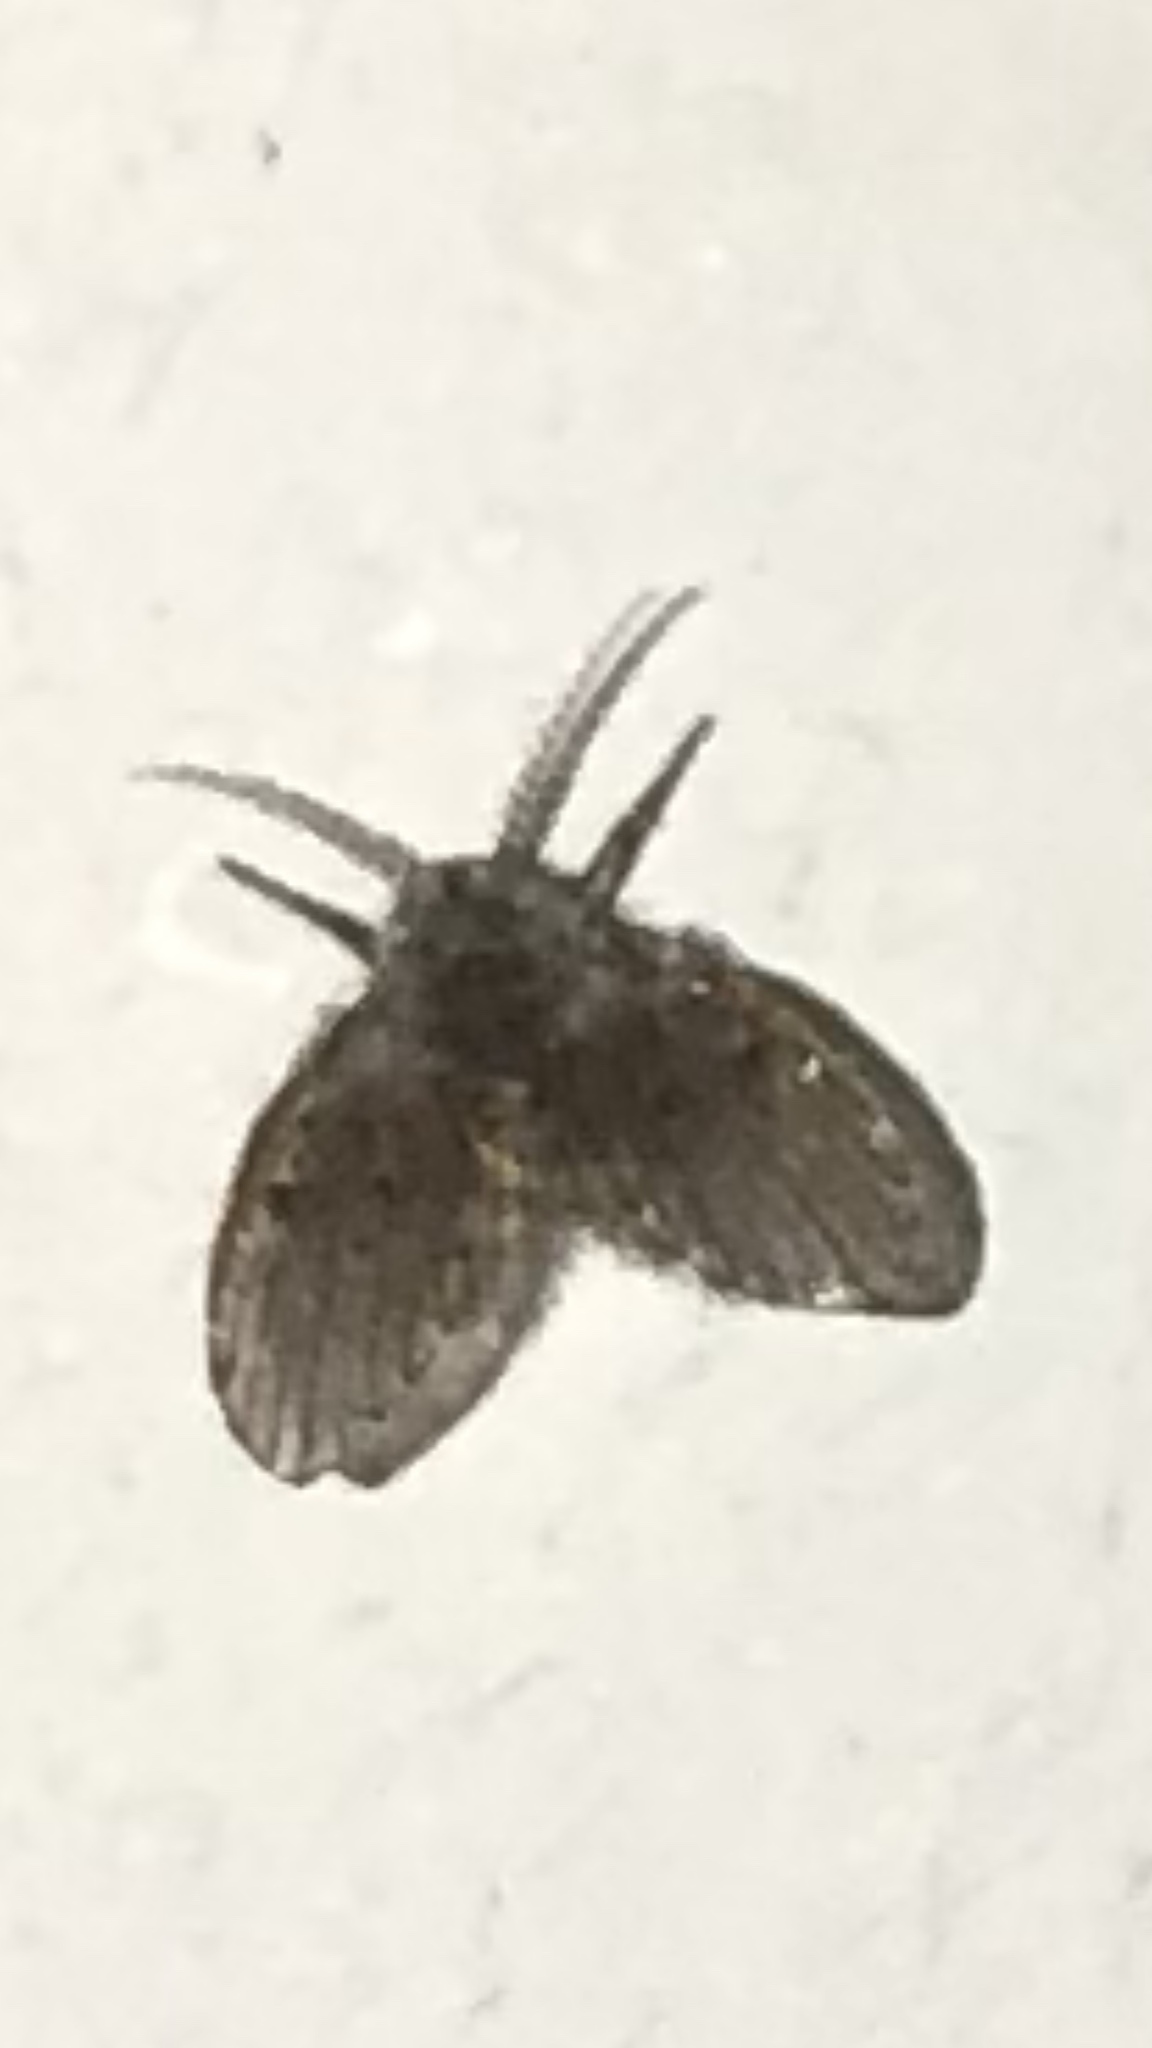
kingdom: Animalia
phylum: Arthropoda
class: Insecta
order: Diptera
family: Psychodidae
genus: Clogmia
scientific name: Clogmia albipunctatus
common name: White-spotted moth fly
